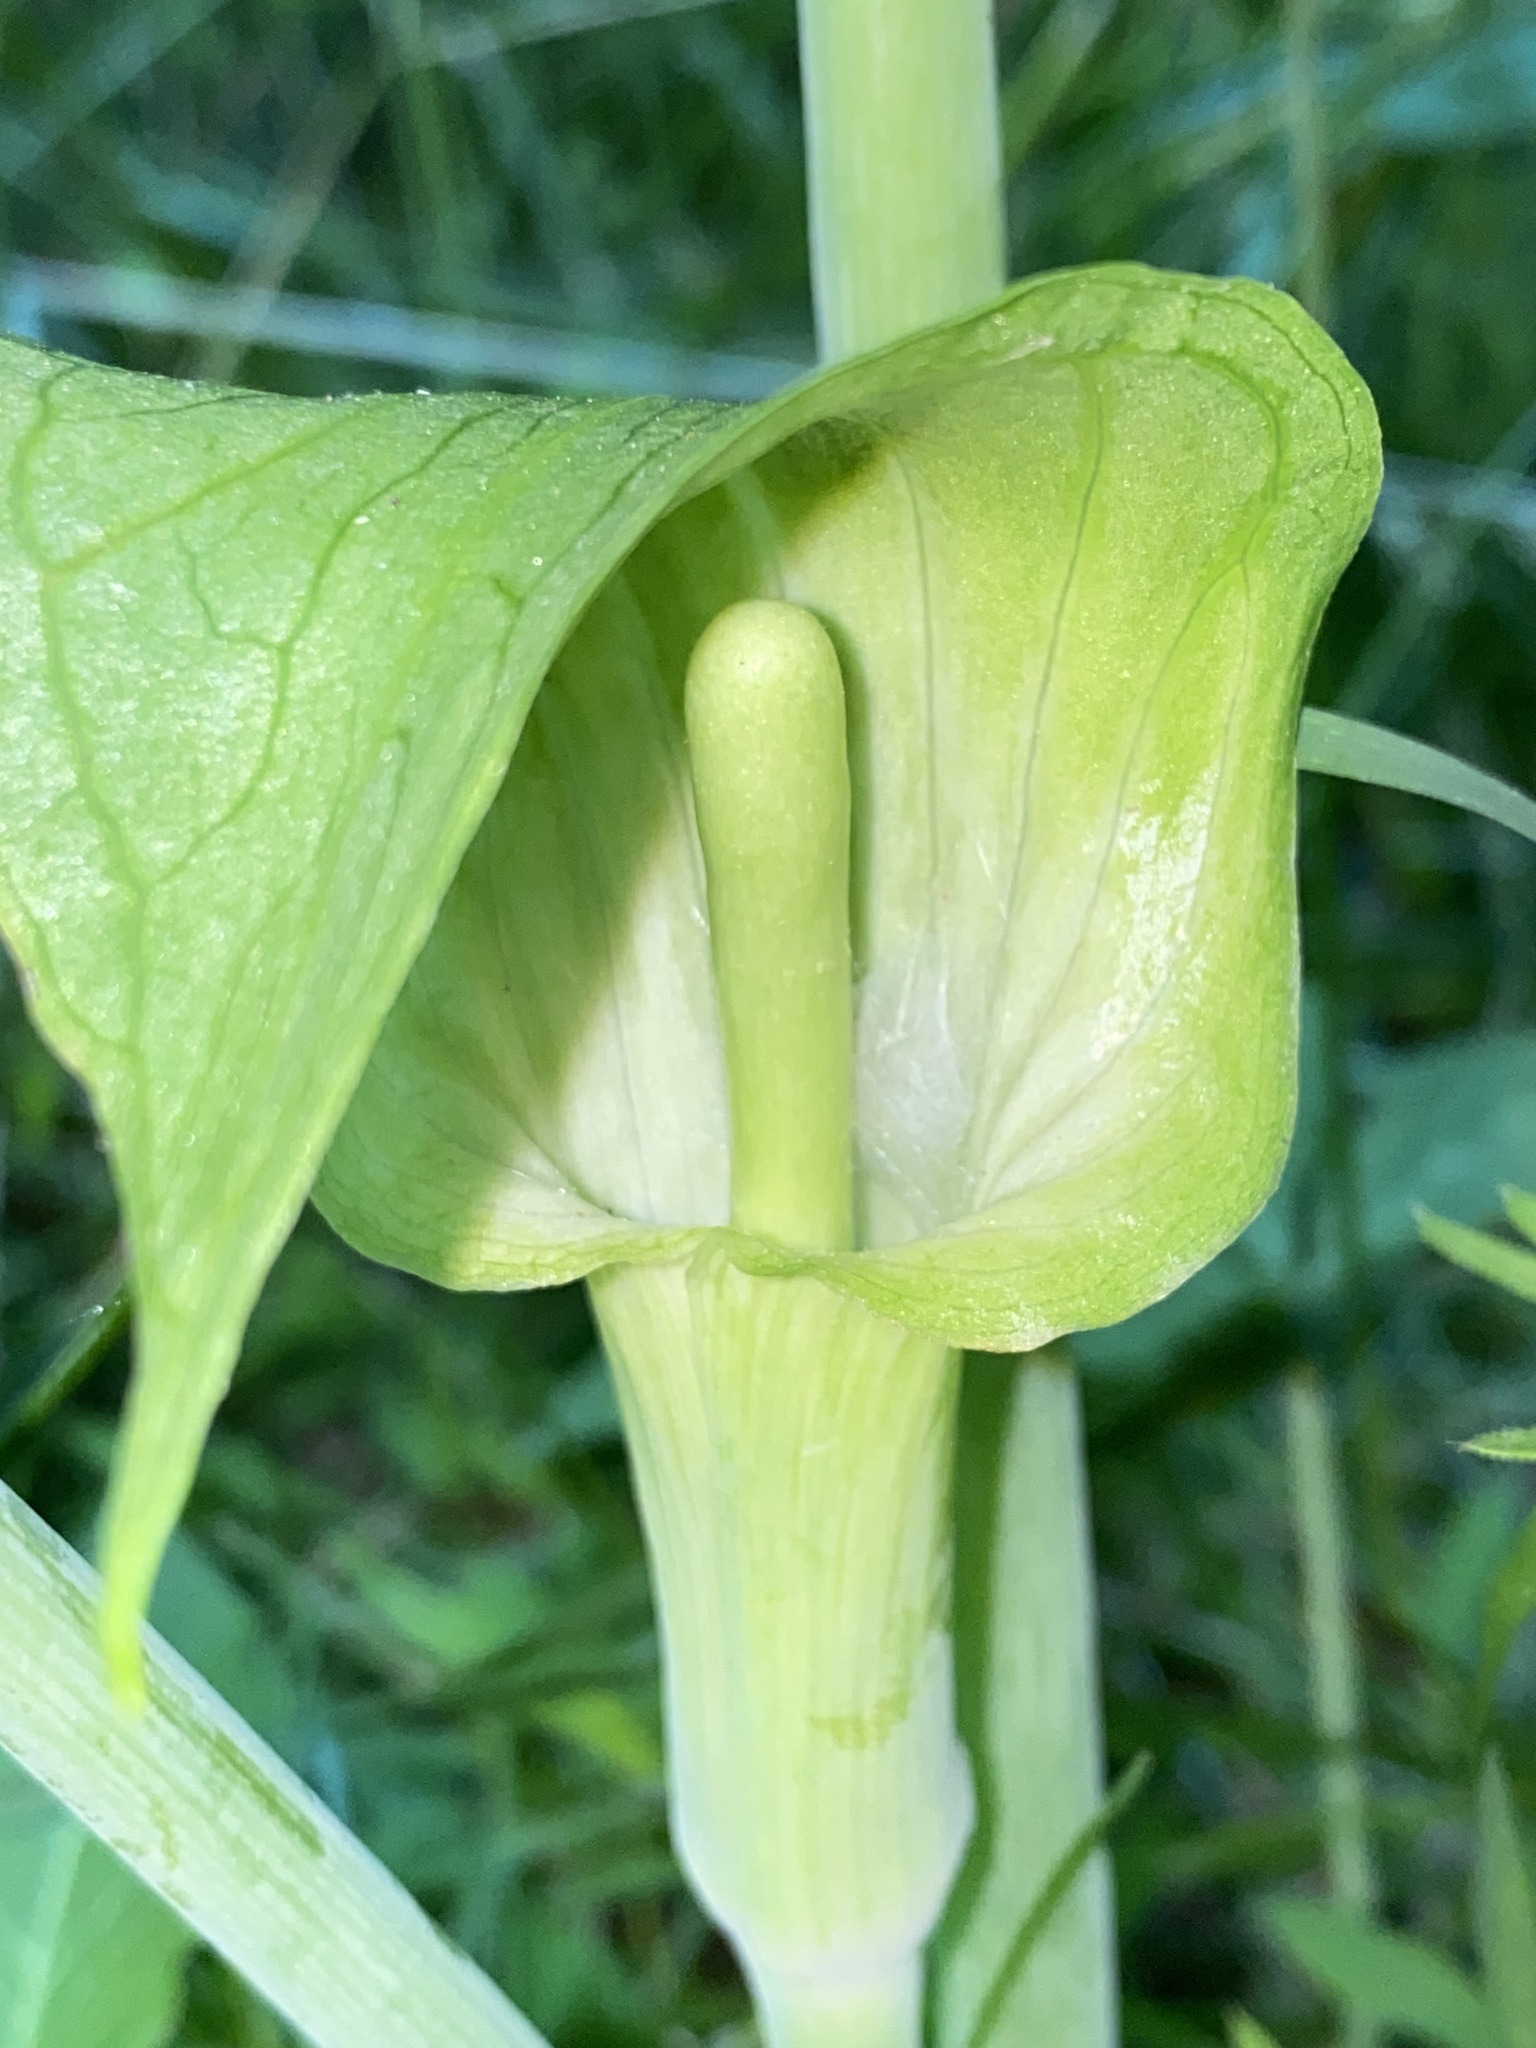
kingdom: Plantae
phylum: Tracheophyta
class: Liliopsida
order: Alismatales
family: Araceae
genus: Arisaema
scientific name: Arisaema triphyllum
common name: Jack-in-the-pulpit
